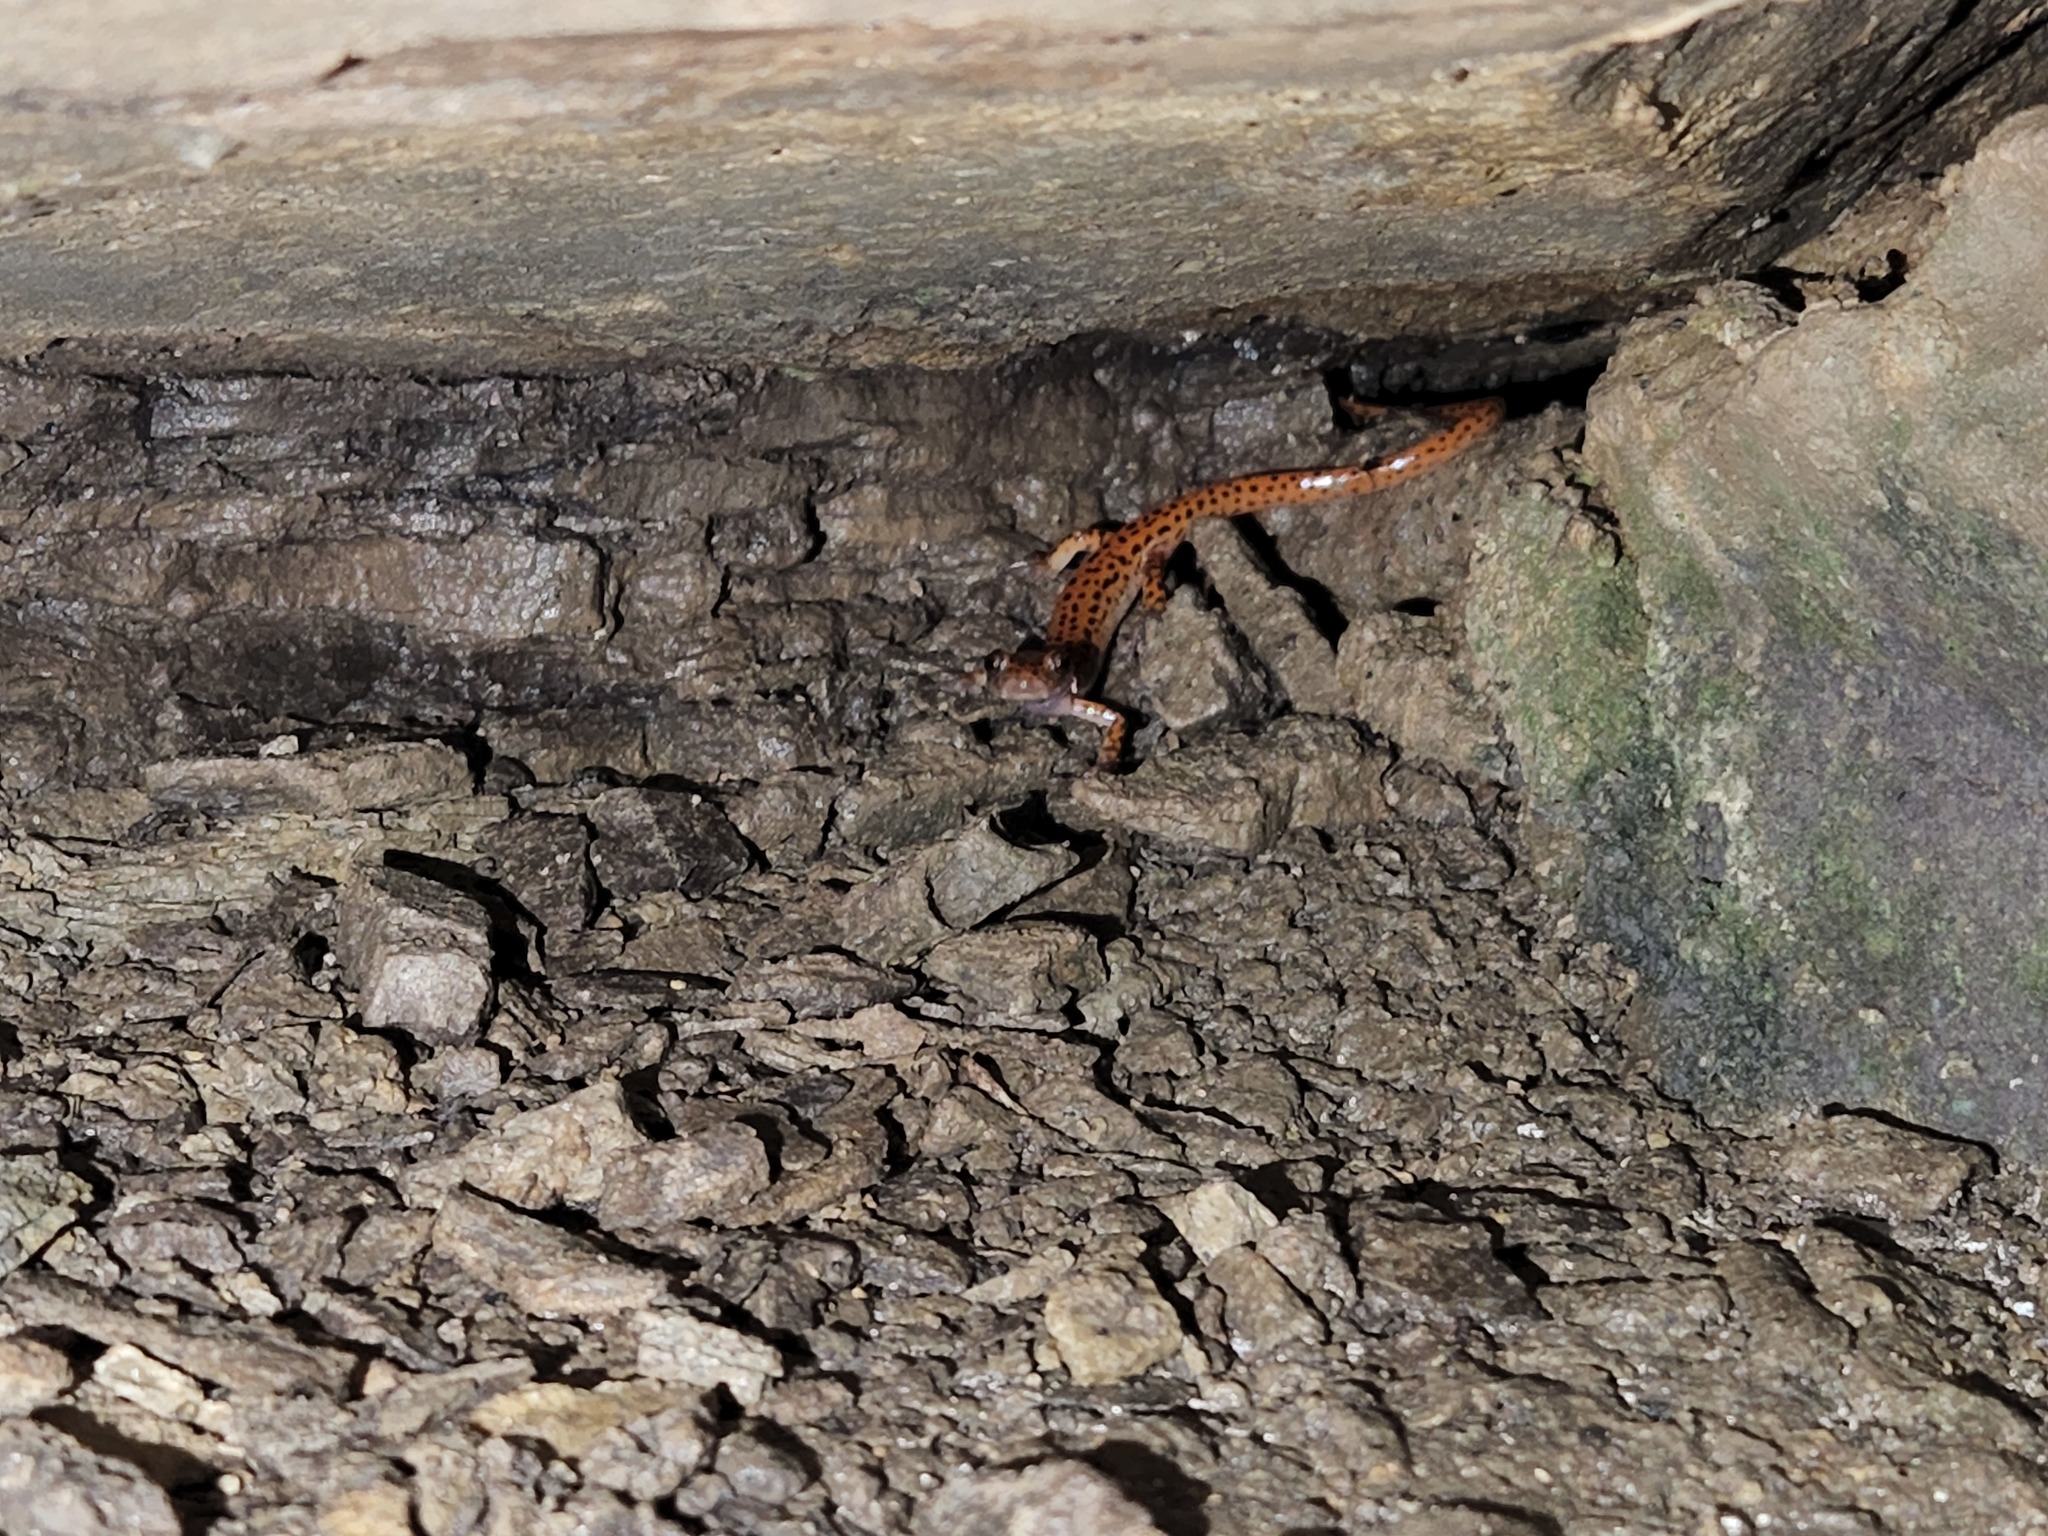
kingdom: Animalia
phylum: Chordata
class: Amphibia
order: Caudata
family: Plethodontidae
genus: Eurycea
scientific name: Eurycea lucifuga
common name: Cave salamander
